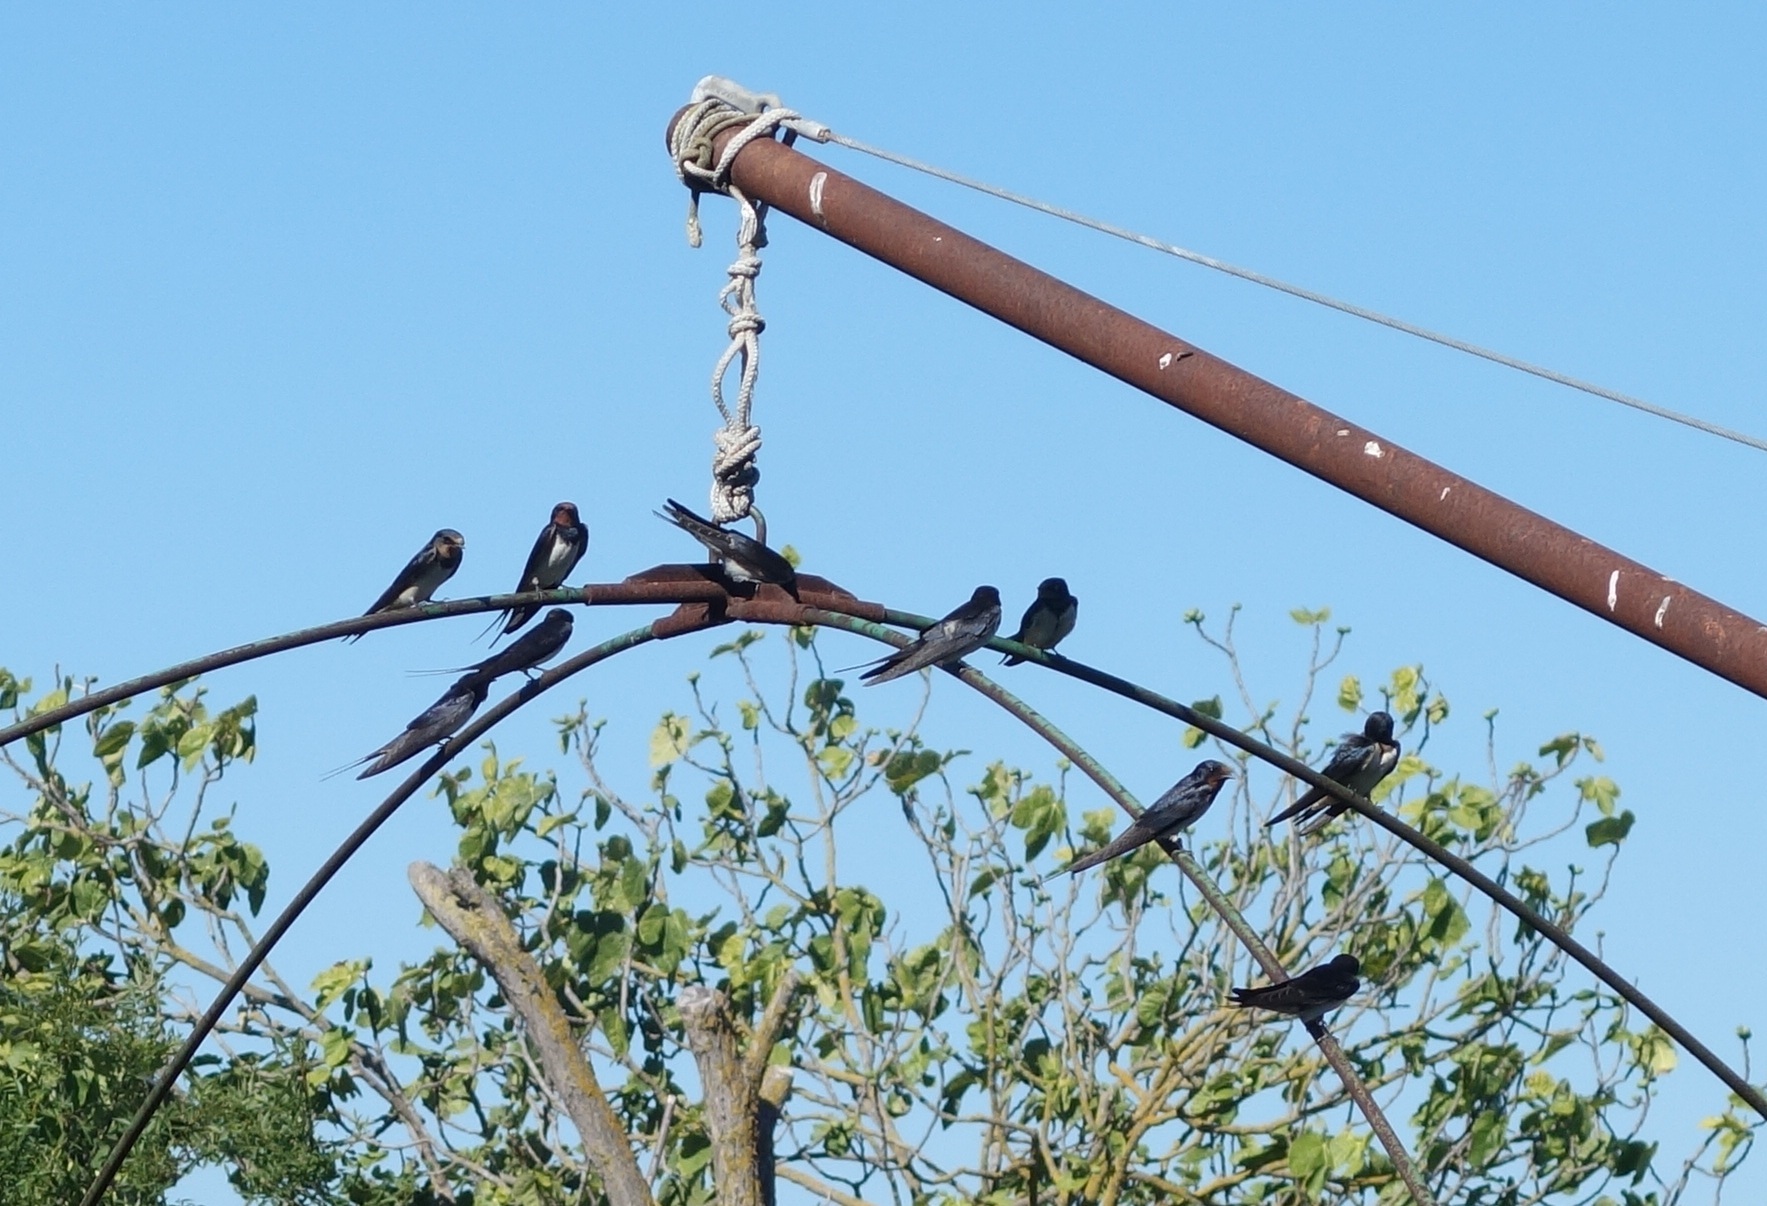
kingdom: Animalia
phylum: Chordata
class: Aves
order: Passeriformes
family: Hirundinidae
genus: Hirundo
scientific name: Hirundo rustica
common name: Barn swallow
